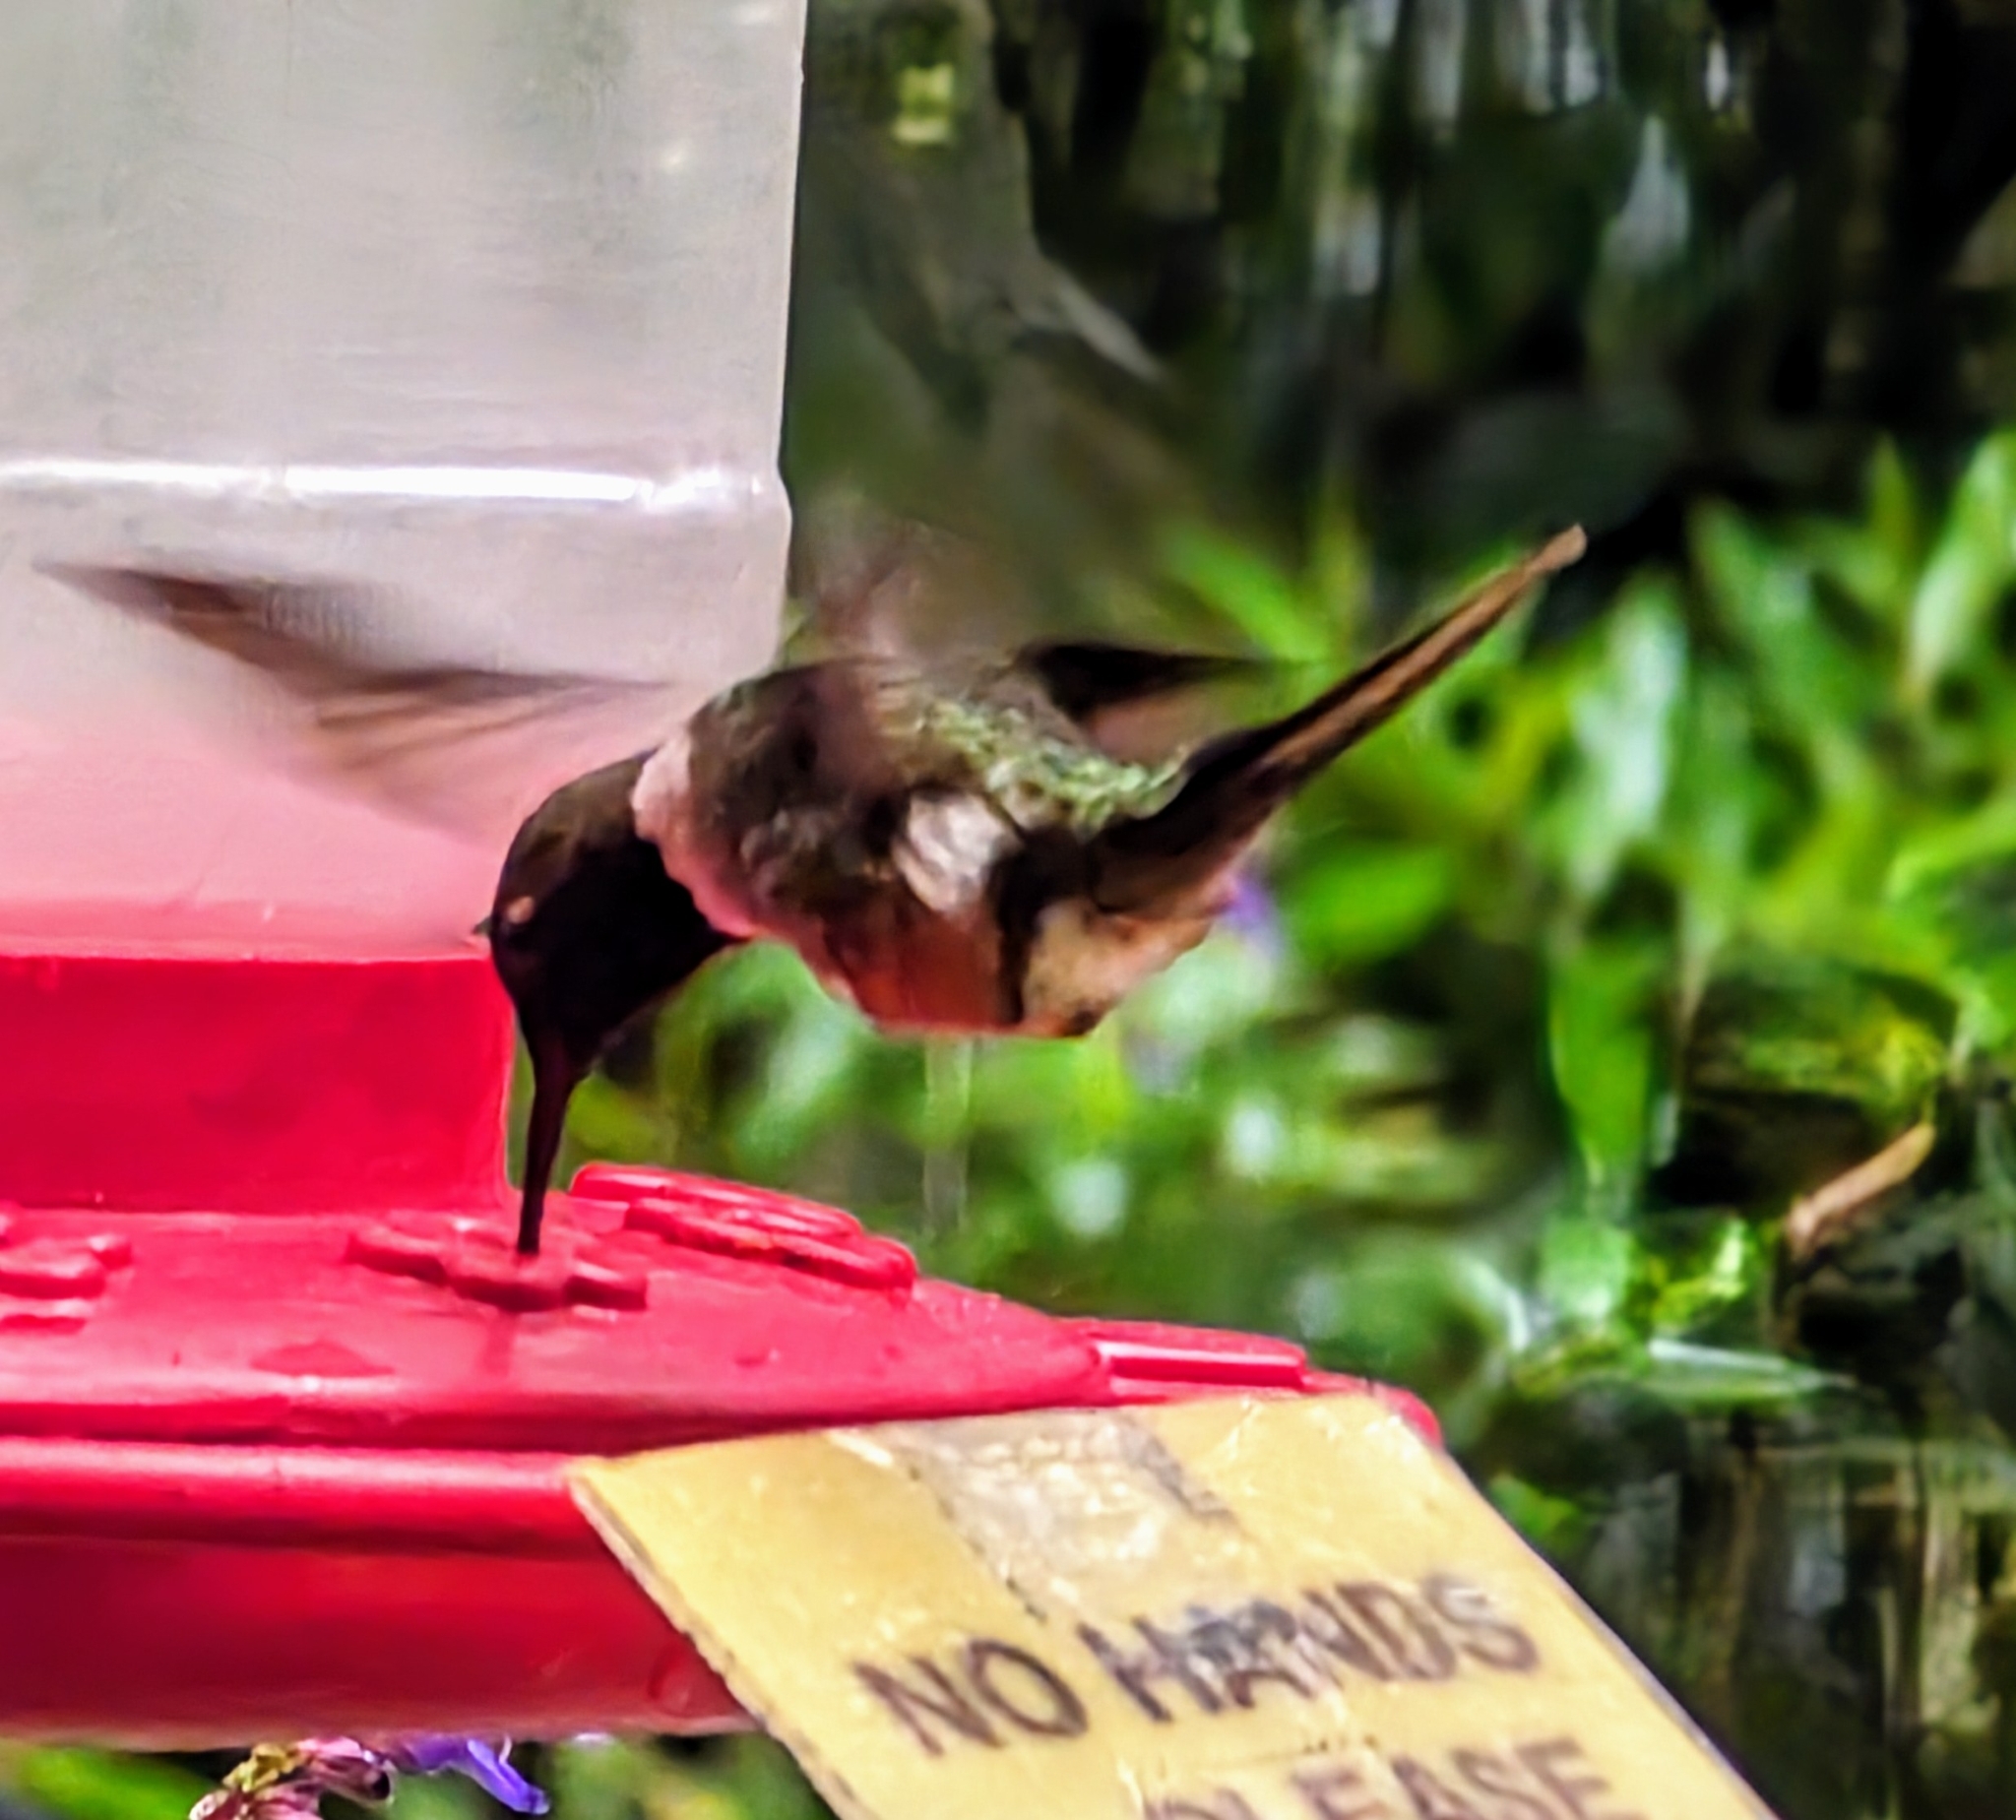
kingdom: Animalia
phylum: Chordata
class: Aves
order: Apodiformes
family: Trochilidae
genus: Calliphlox
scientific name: Calliphlox bryantae
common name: Magenta-throated woodstar
